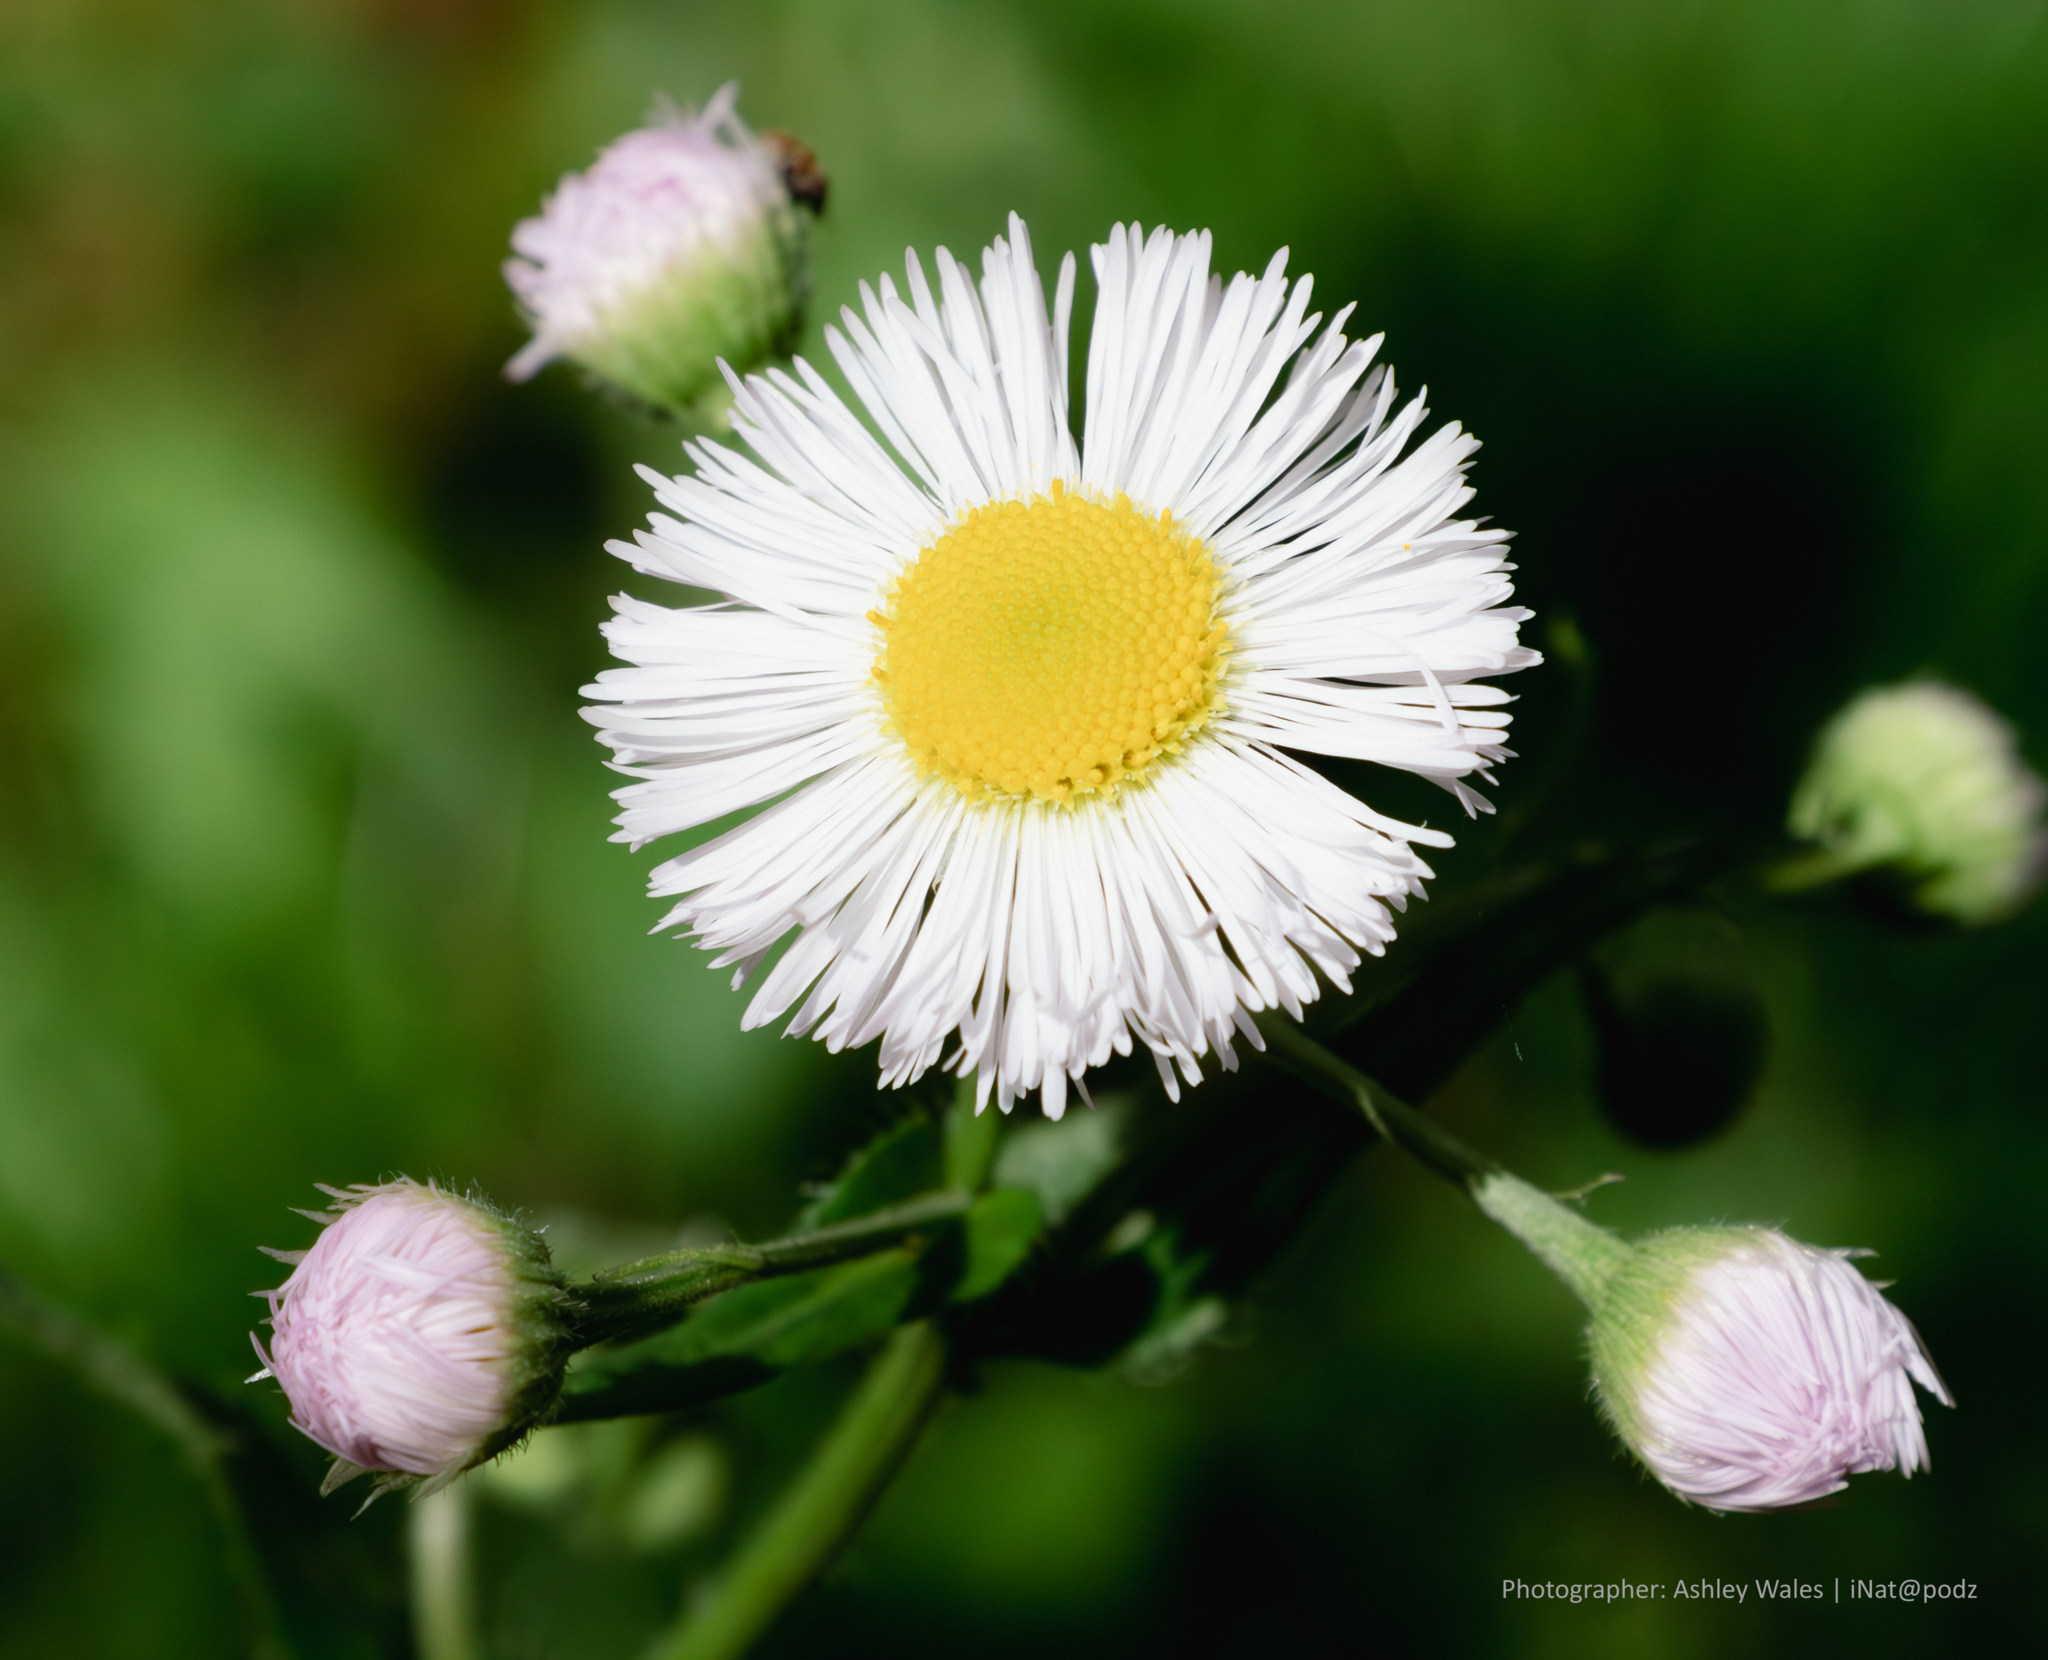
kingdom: Plantae
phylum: Tracheophyta
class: Magnoliopsida
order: Asterales
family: Asteraceae
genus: Erigeron
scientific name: Erigeron philadelphicus
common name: Robin's-plantain
